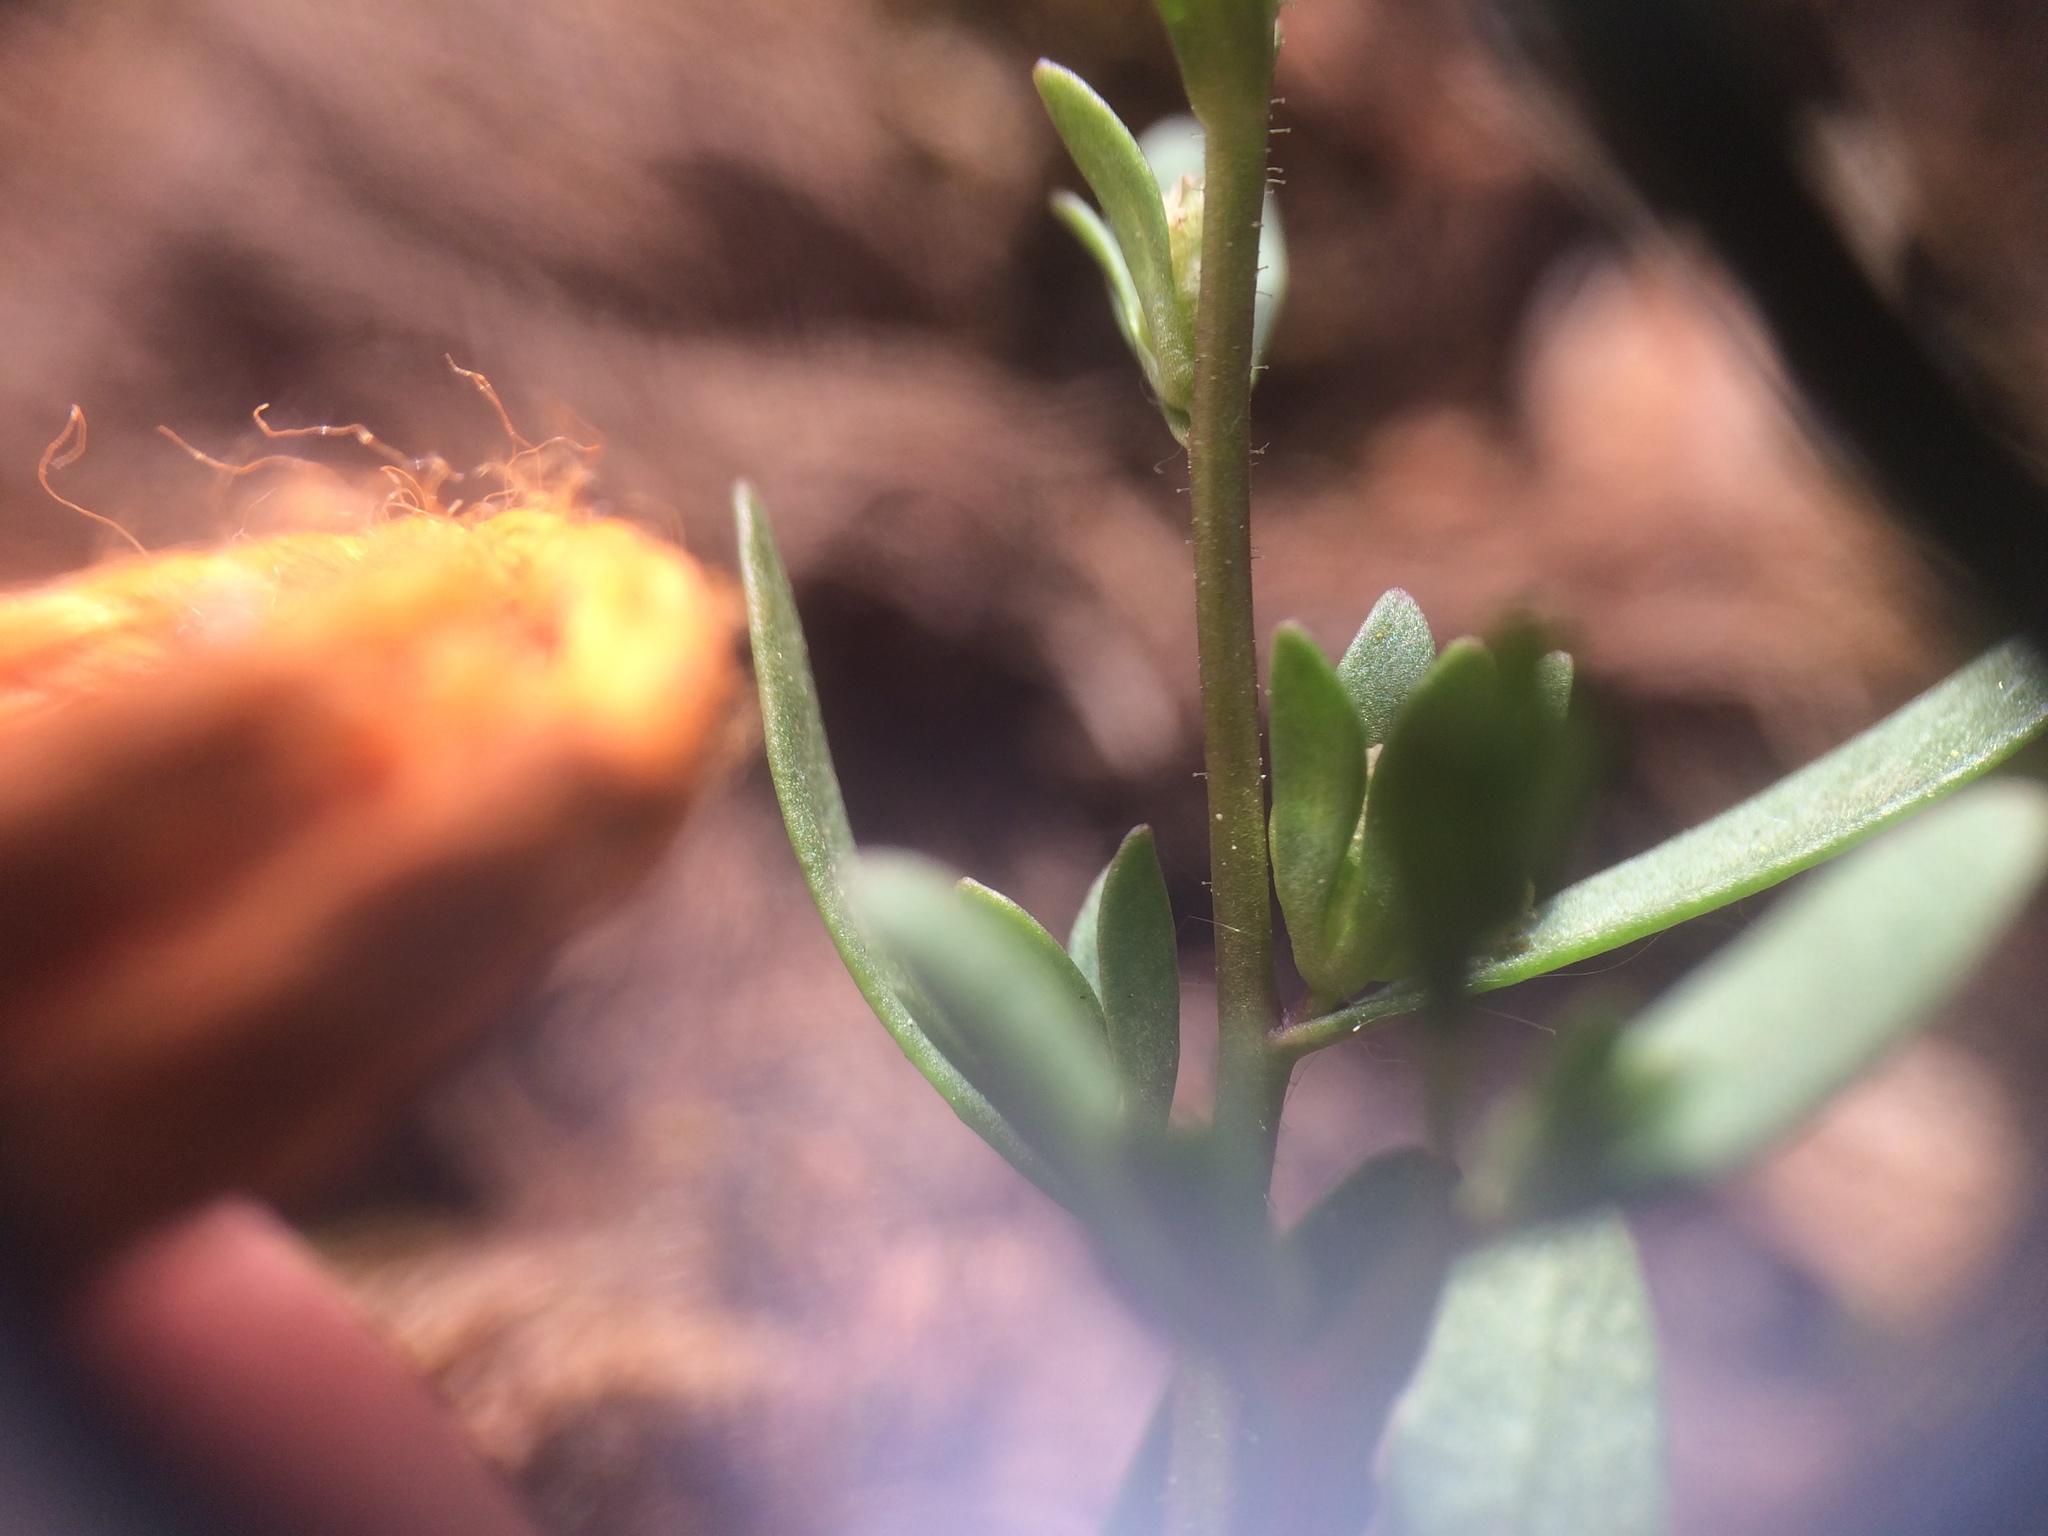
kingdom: Plantae
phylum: Tracheophyta
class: Magnoliopsida
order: Lamiales
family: Plantaginaceae
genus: Veronica
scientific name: Veronica peregrina
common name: Neckweed
